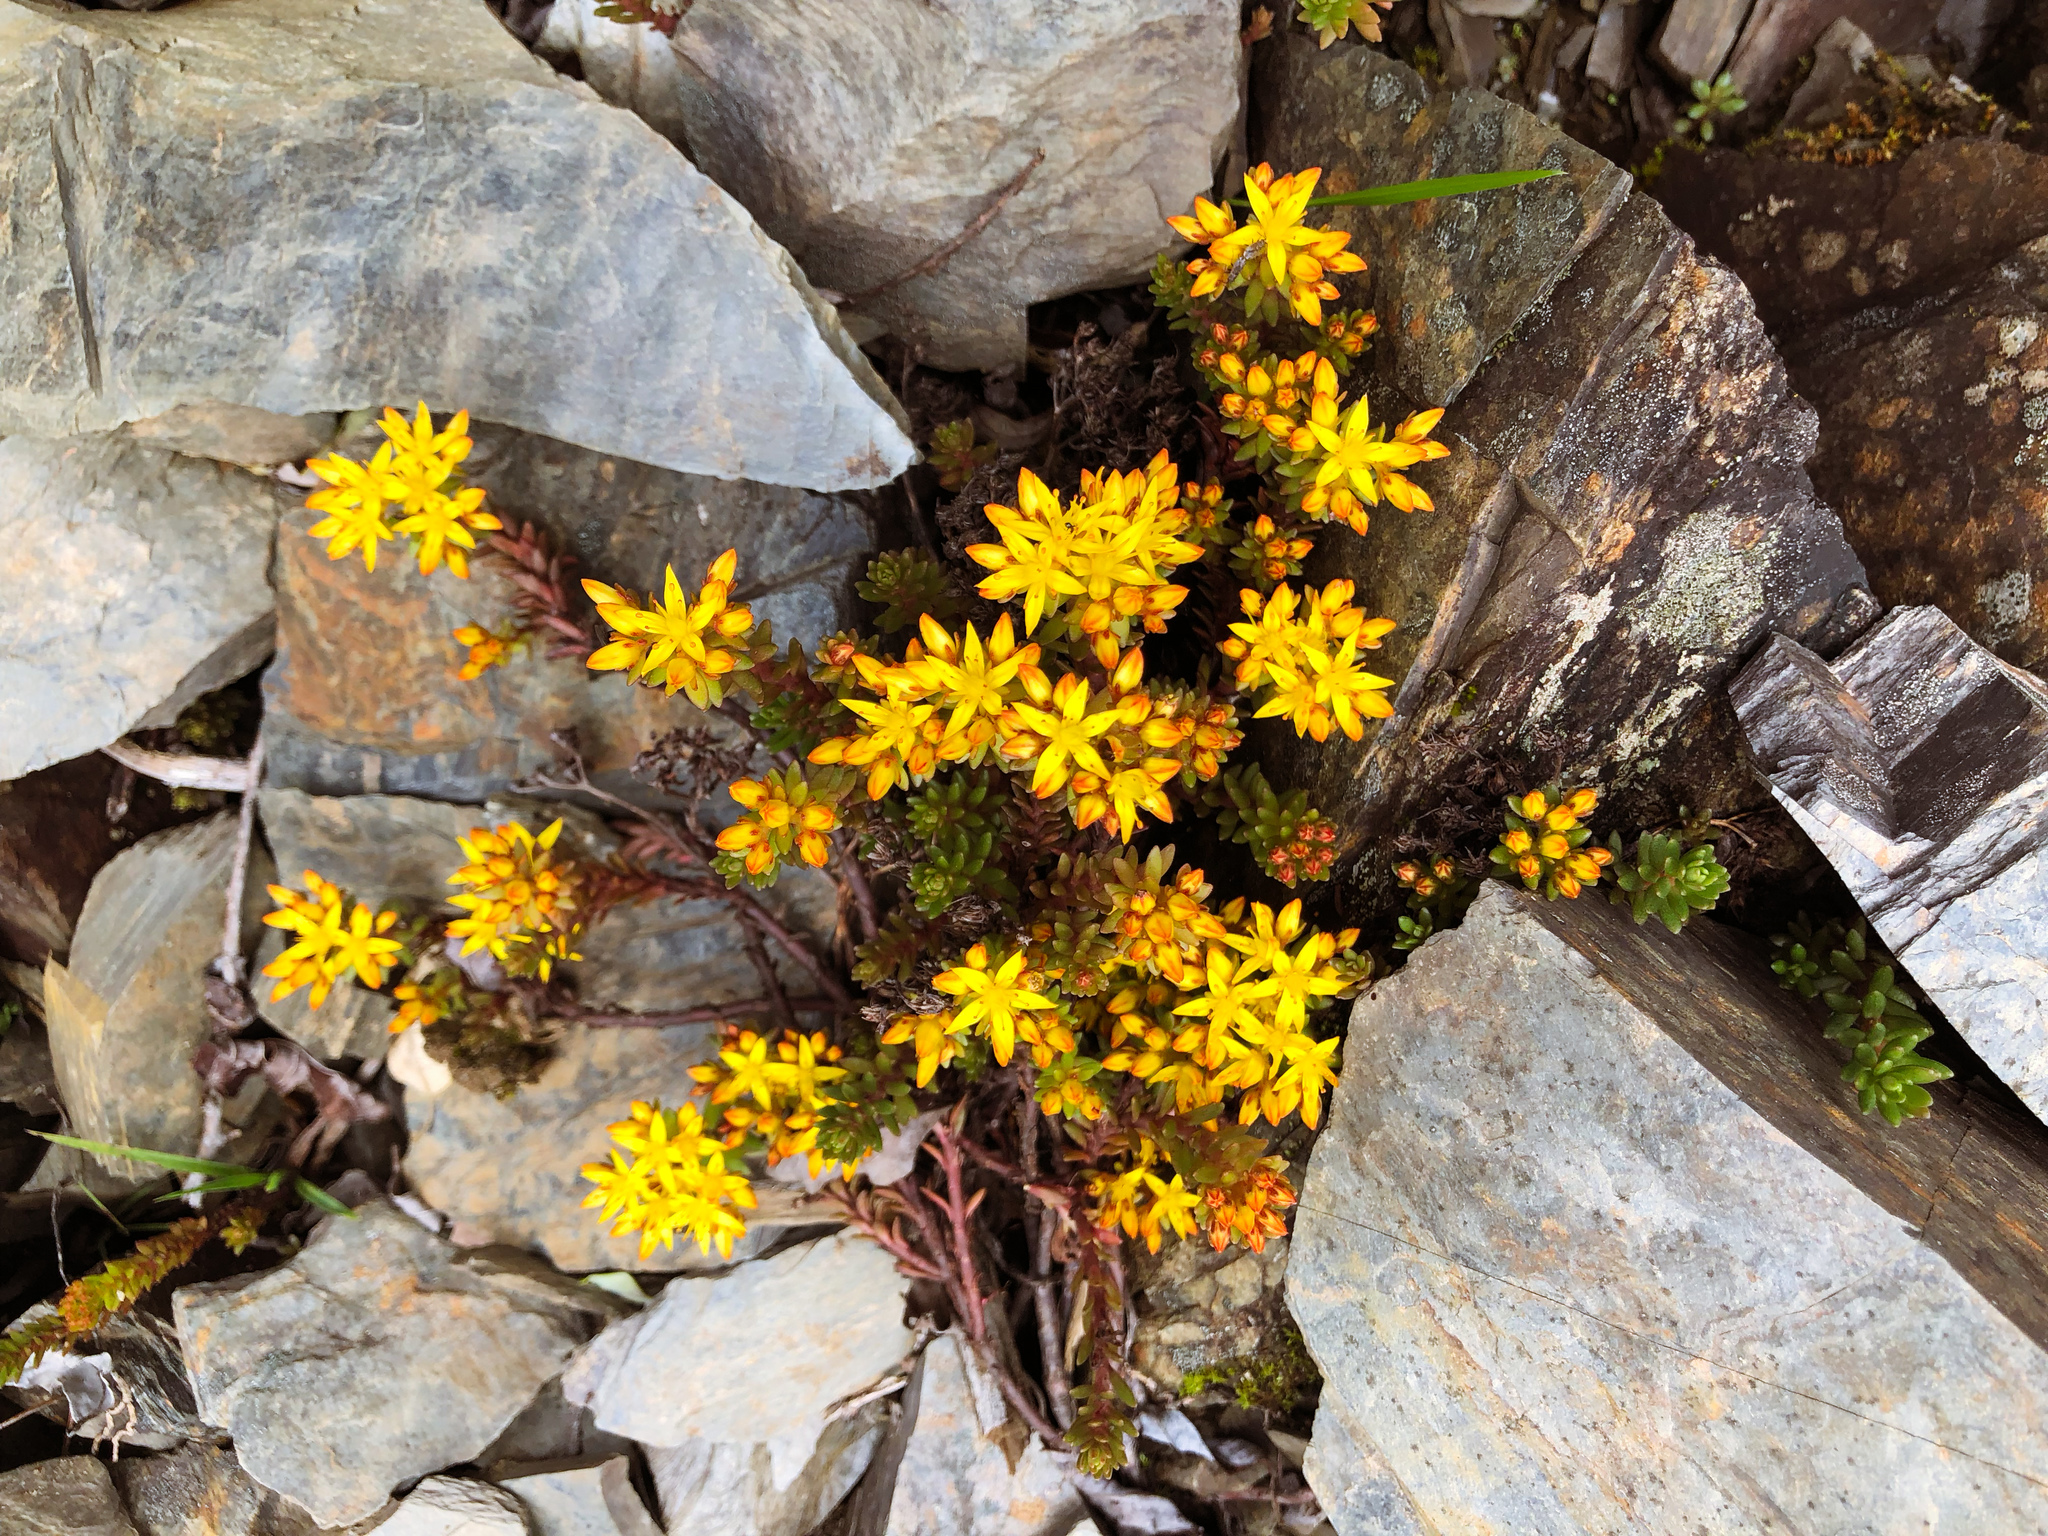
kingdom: Plantae
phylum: Tracheophyta
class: Magnoliopsida
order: Saxifragales
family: Crassulaceae
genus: Sedum
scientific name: Sedum morrisonense
